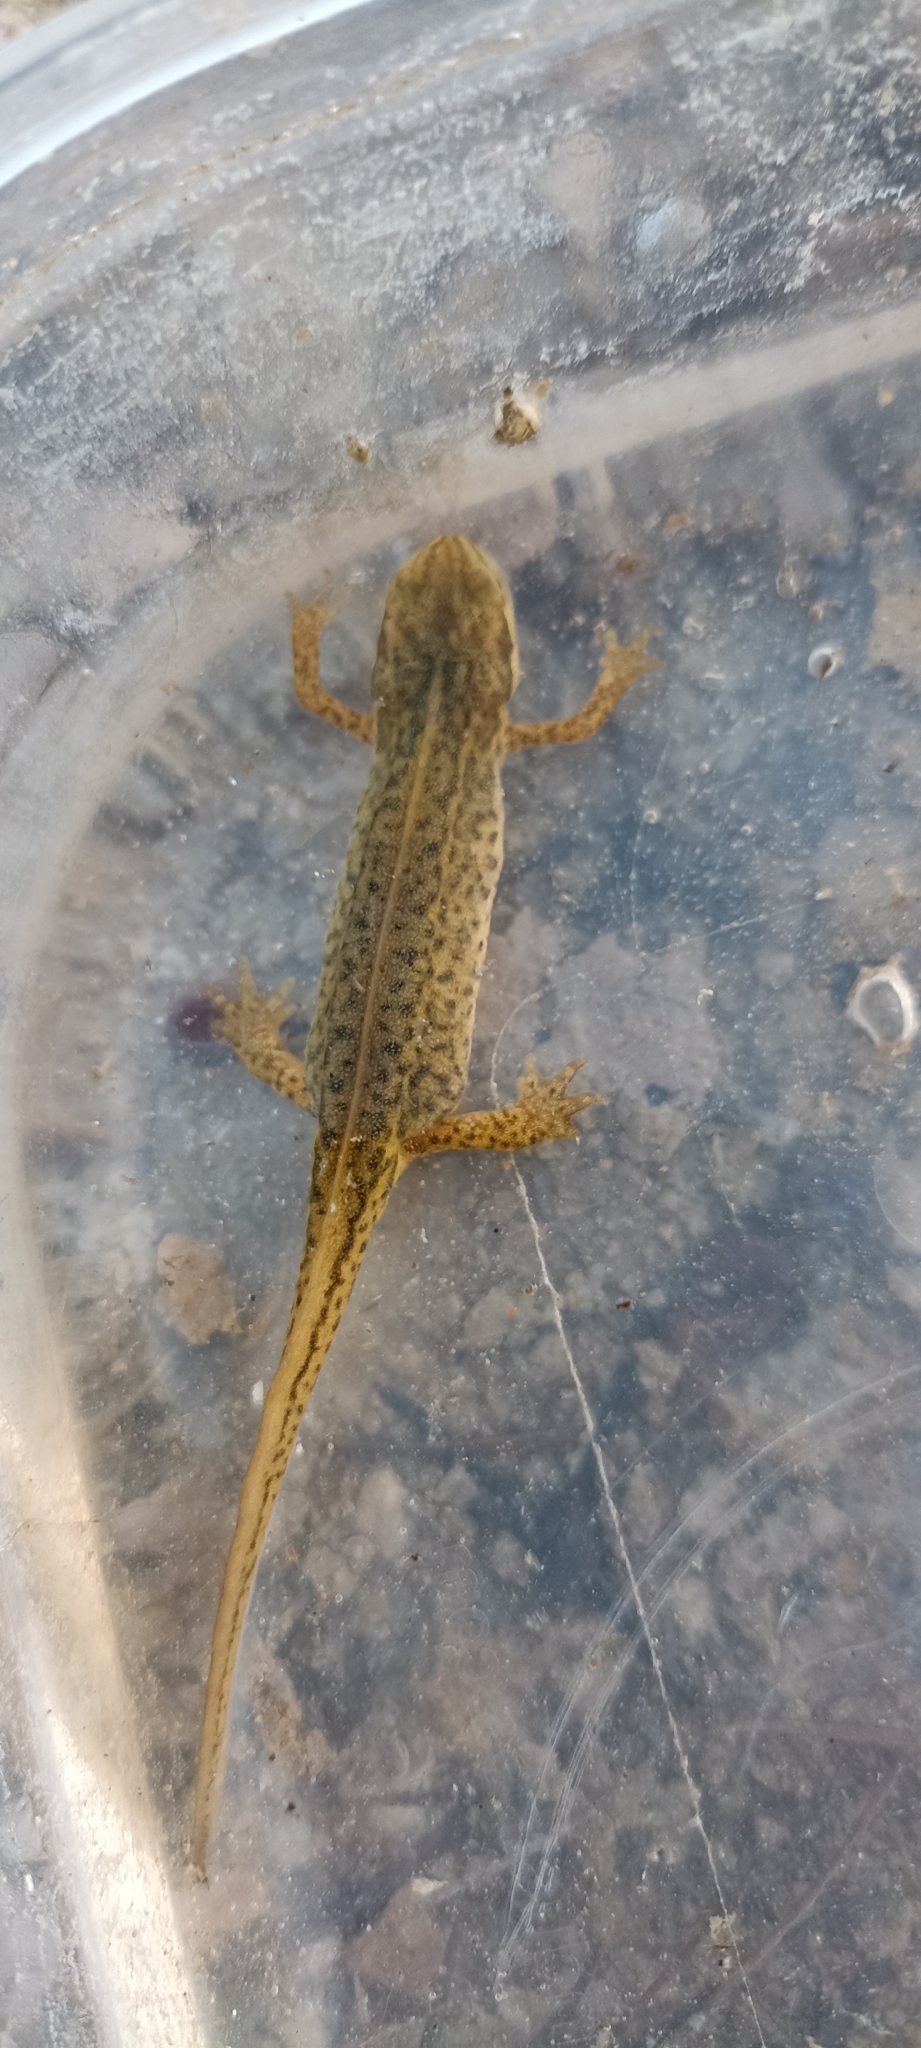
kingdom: Animalia
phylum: Chordata
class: Amphibia
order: Caudata
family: Salamandridae
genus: Lissotriton
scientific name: Lissotriton helveticus
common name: Palmate newt
